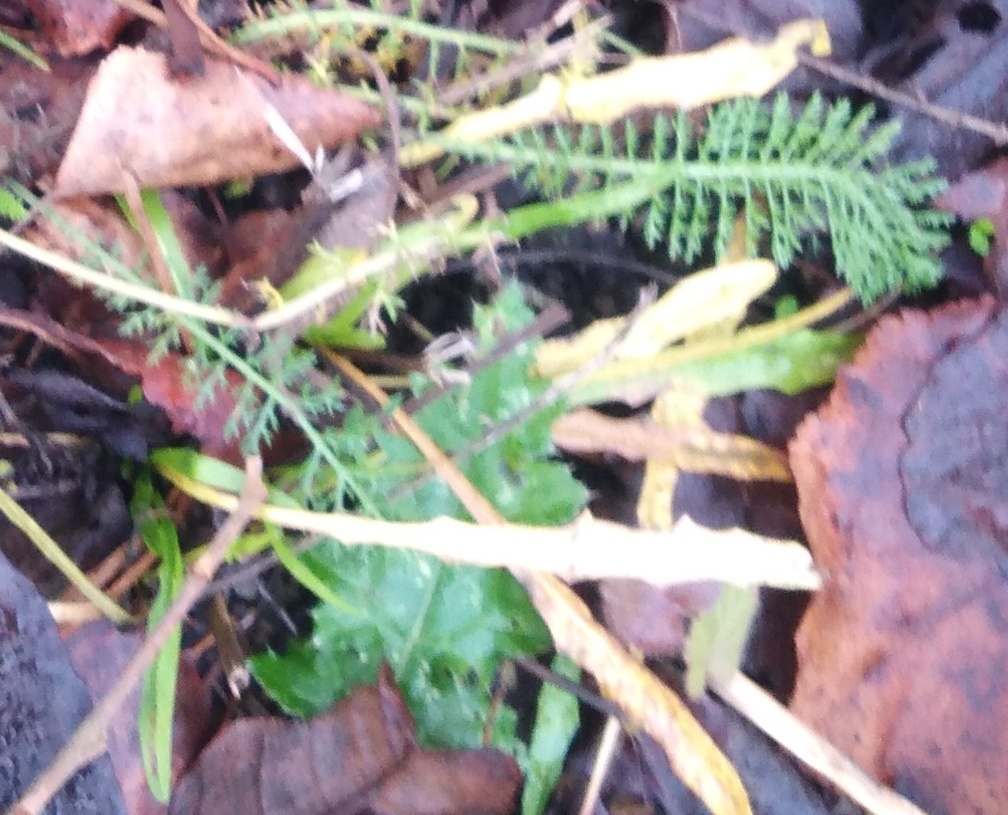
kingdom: Plantae
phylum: Tracheophyta
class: Magnoliopsida
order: Asterales
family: Asteraceae
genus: Achillea
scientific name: Achillea millefolium
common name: Yarrow
